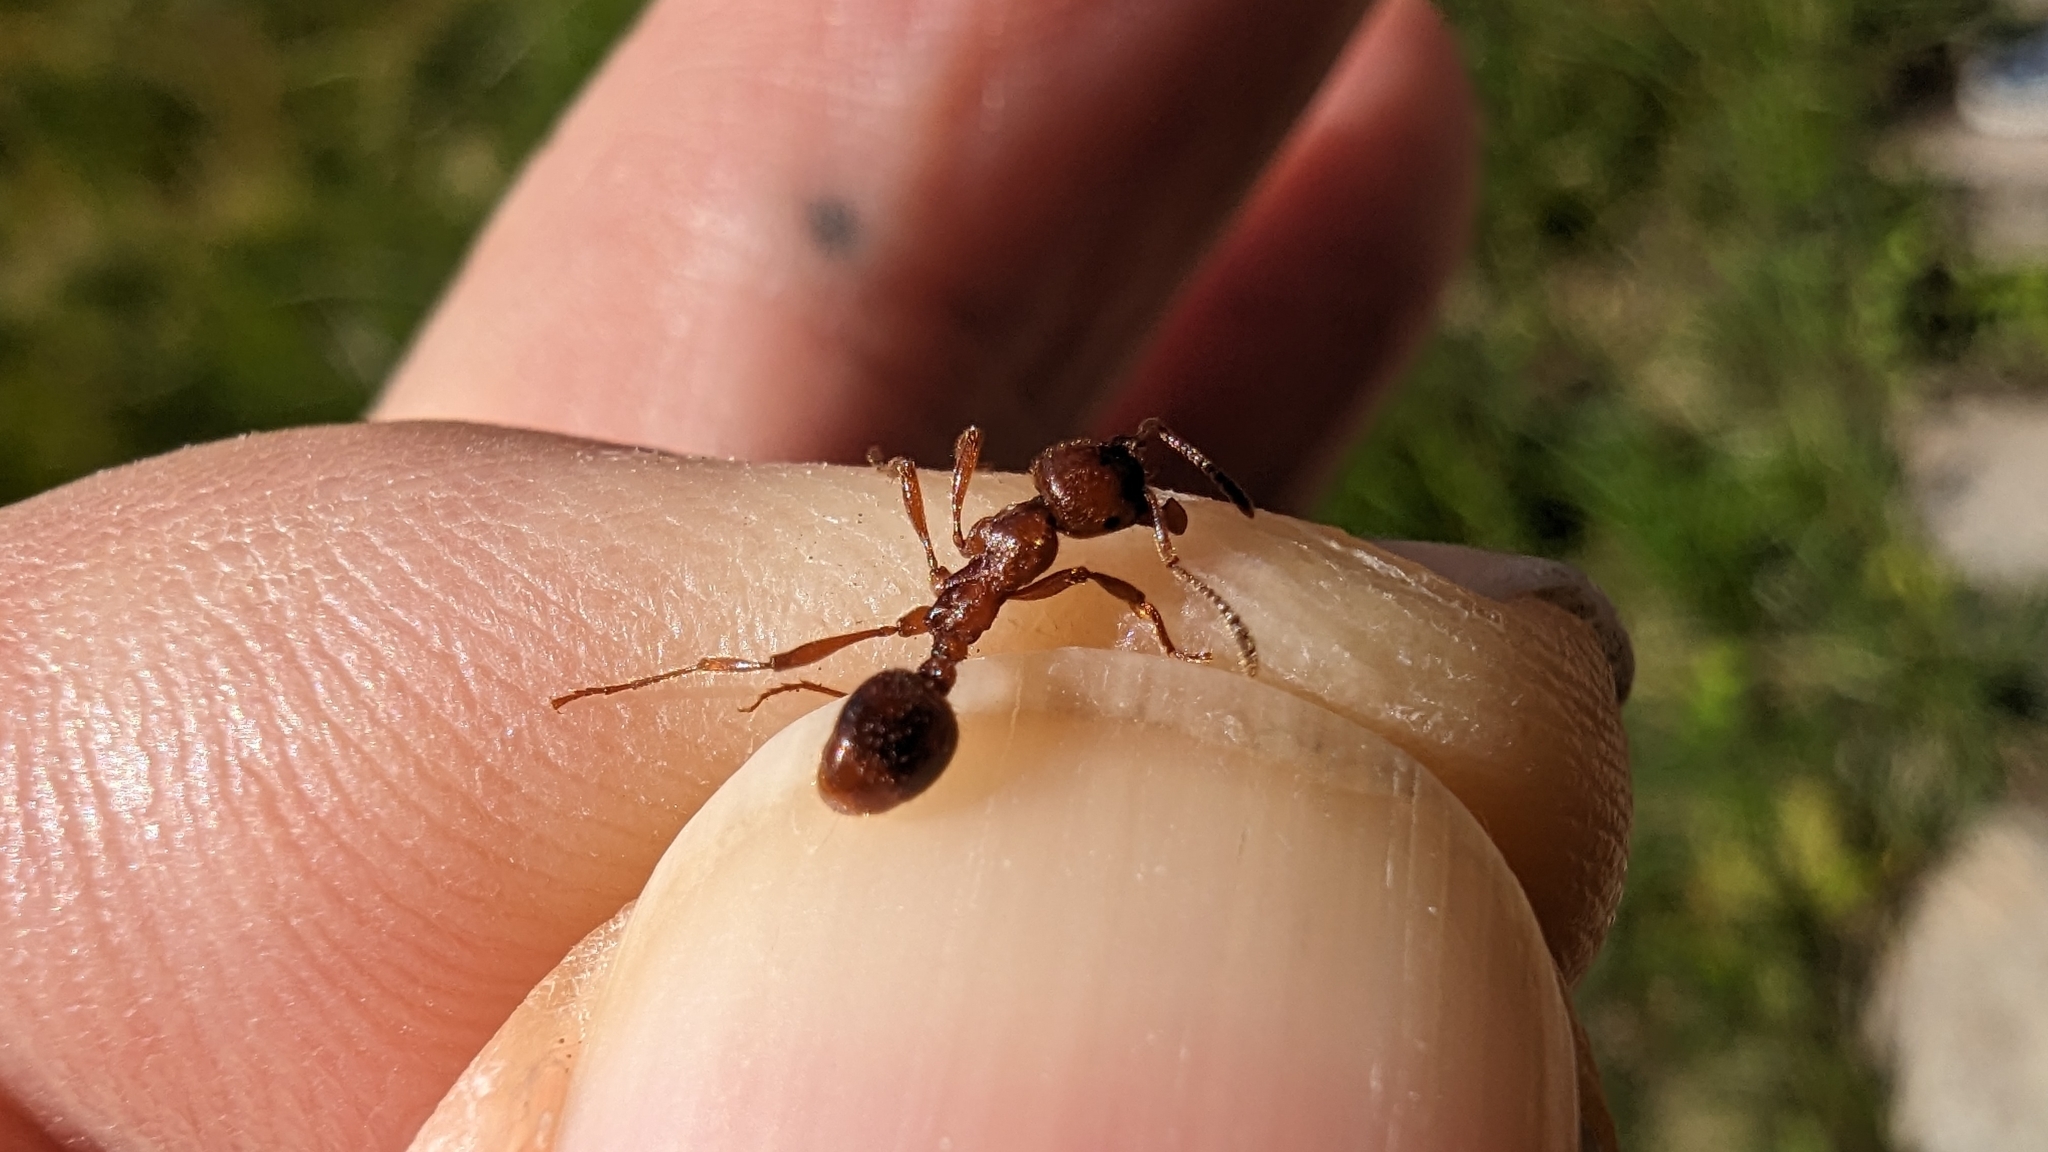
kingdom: Animalia
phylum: Arthropoda
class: Insecta
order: Hymenoptera
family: Formicidae
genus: Manica
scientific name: Manica rubida
